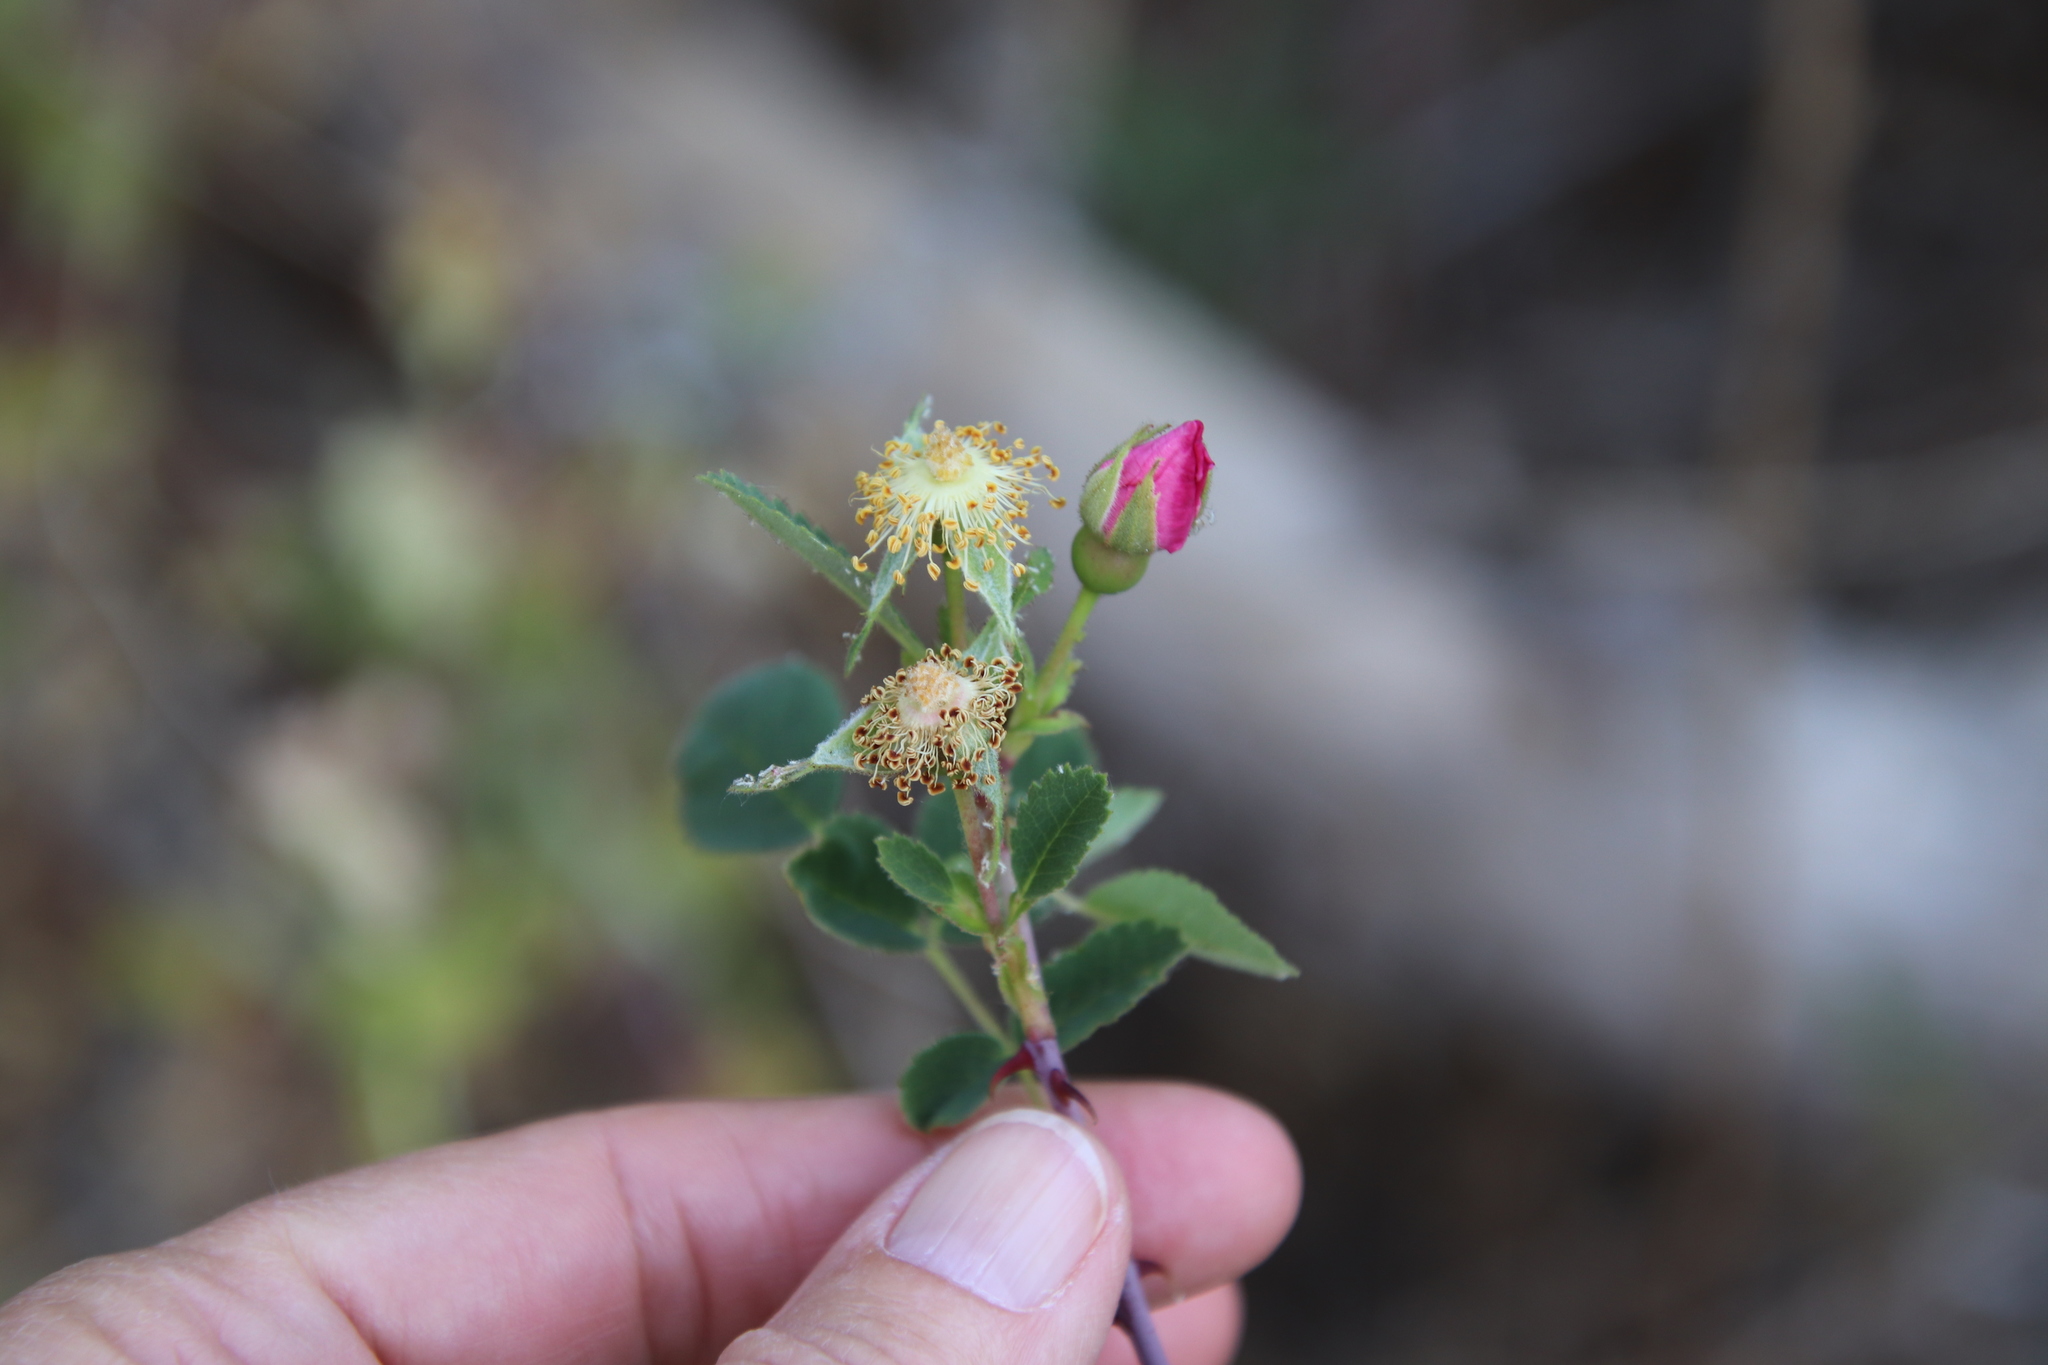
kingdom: Plantae
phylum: Tracheophyta
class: Magnoliopsida
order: Rosales
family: Rosaceae
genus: Rosa
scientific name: Rosa californica
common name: California rose
